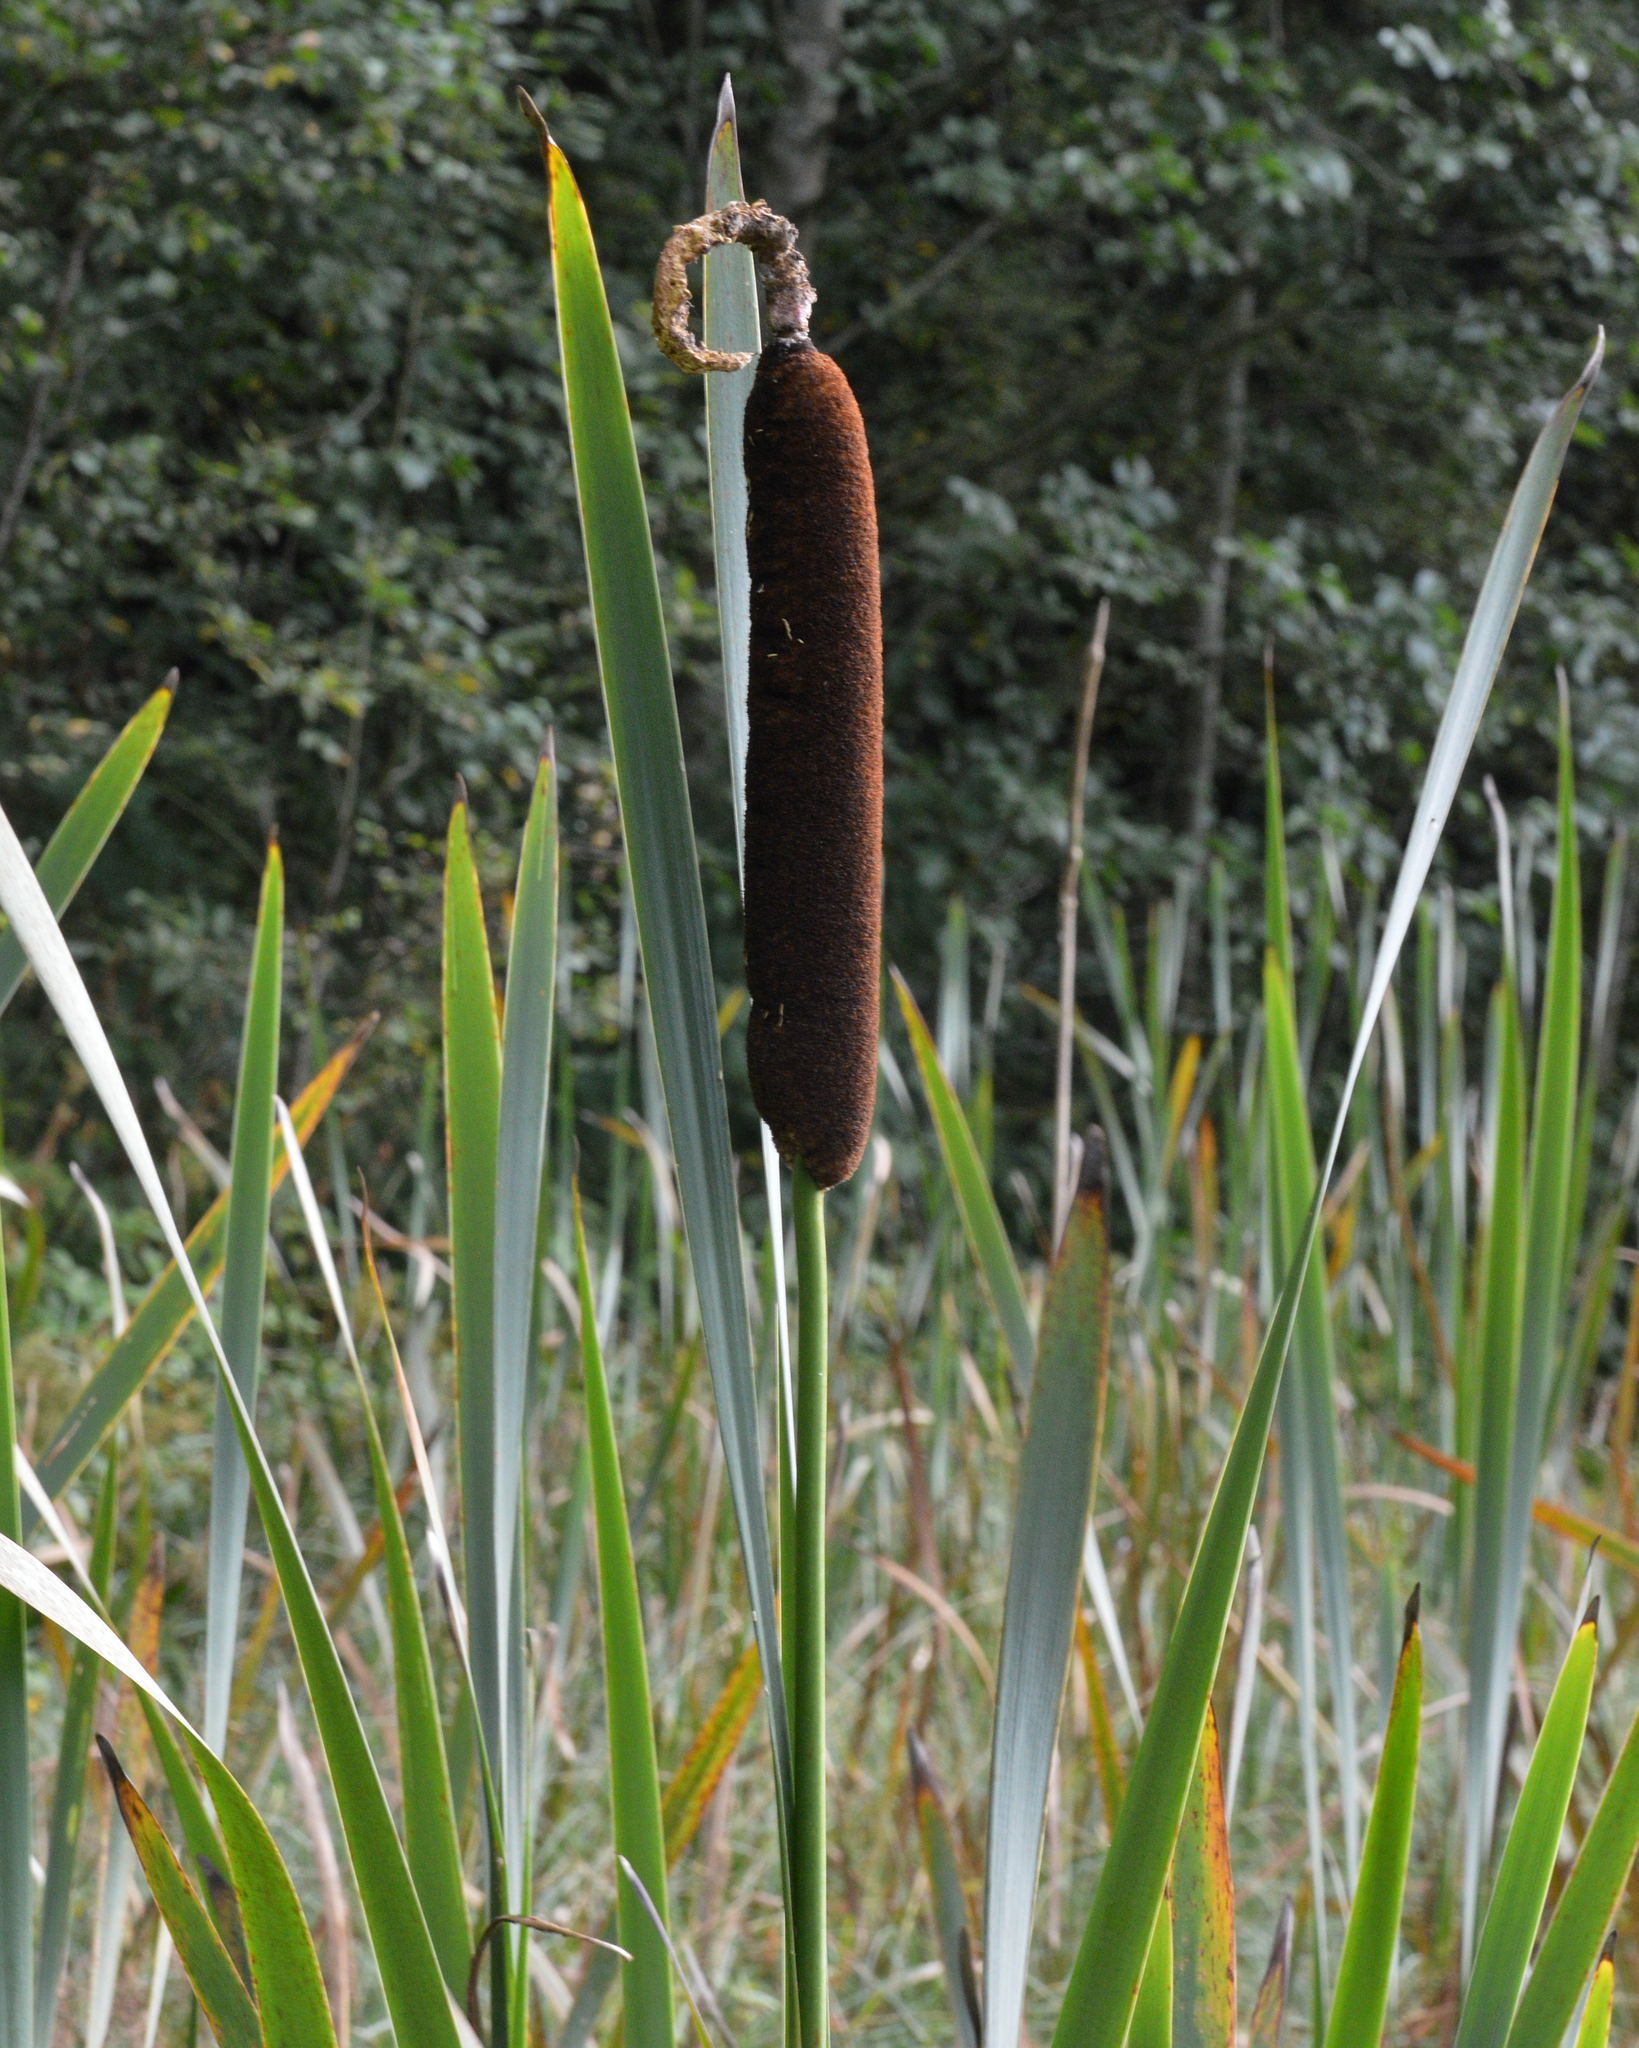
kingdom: Plantae
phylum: Tracheophyta
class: Liliopsida
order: Poales
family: Typhaceae
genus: Typha
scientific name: Typha latifolia
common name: Broadleaf cattail
